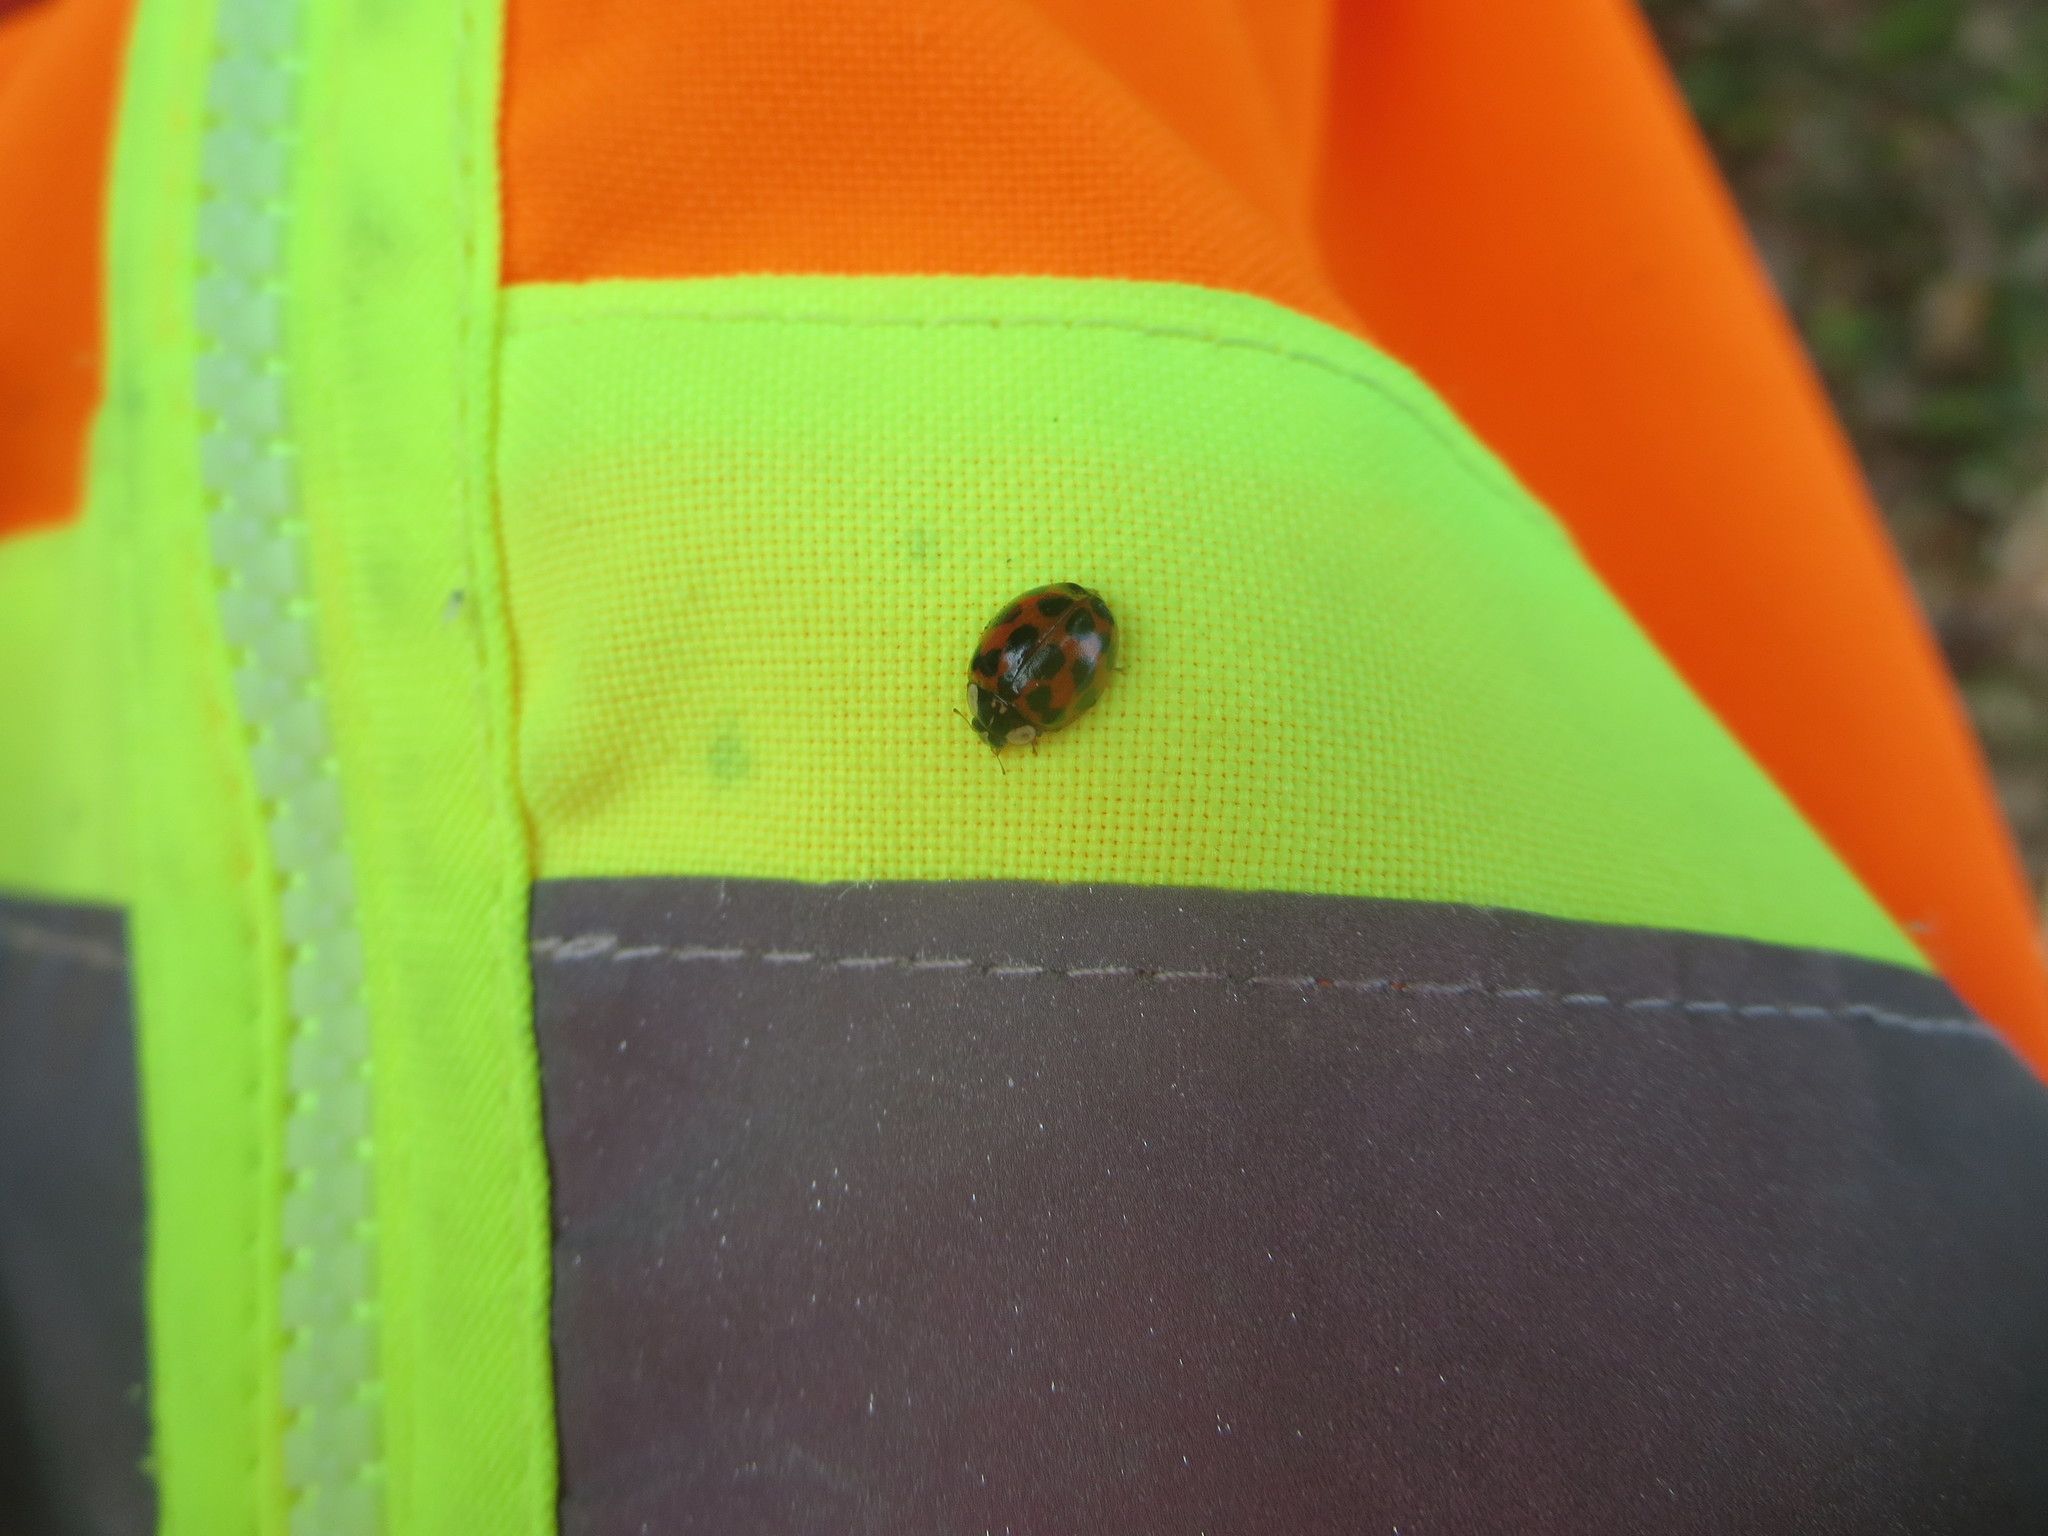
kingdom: Animalia
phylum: Arthropoda
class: Insecta
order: Coleoptera
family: Coccinellidae
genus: Harmonia
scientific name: Harmonia axyridis
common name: Harlequin ladybird
